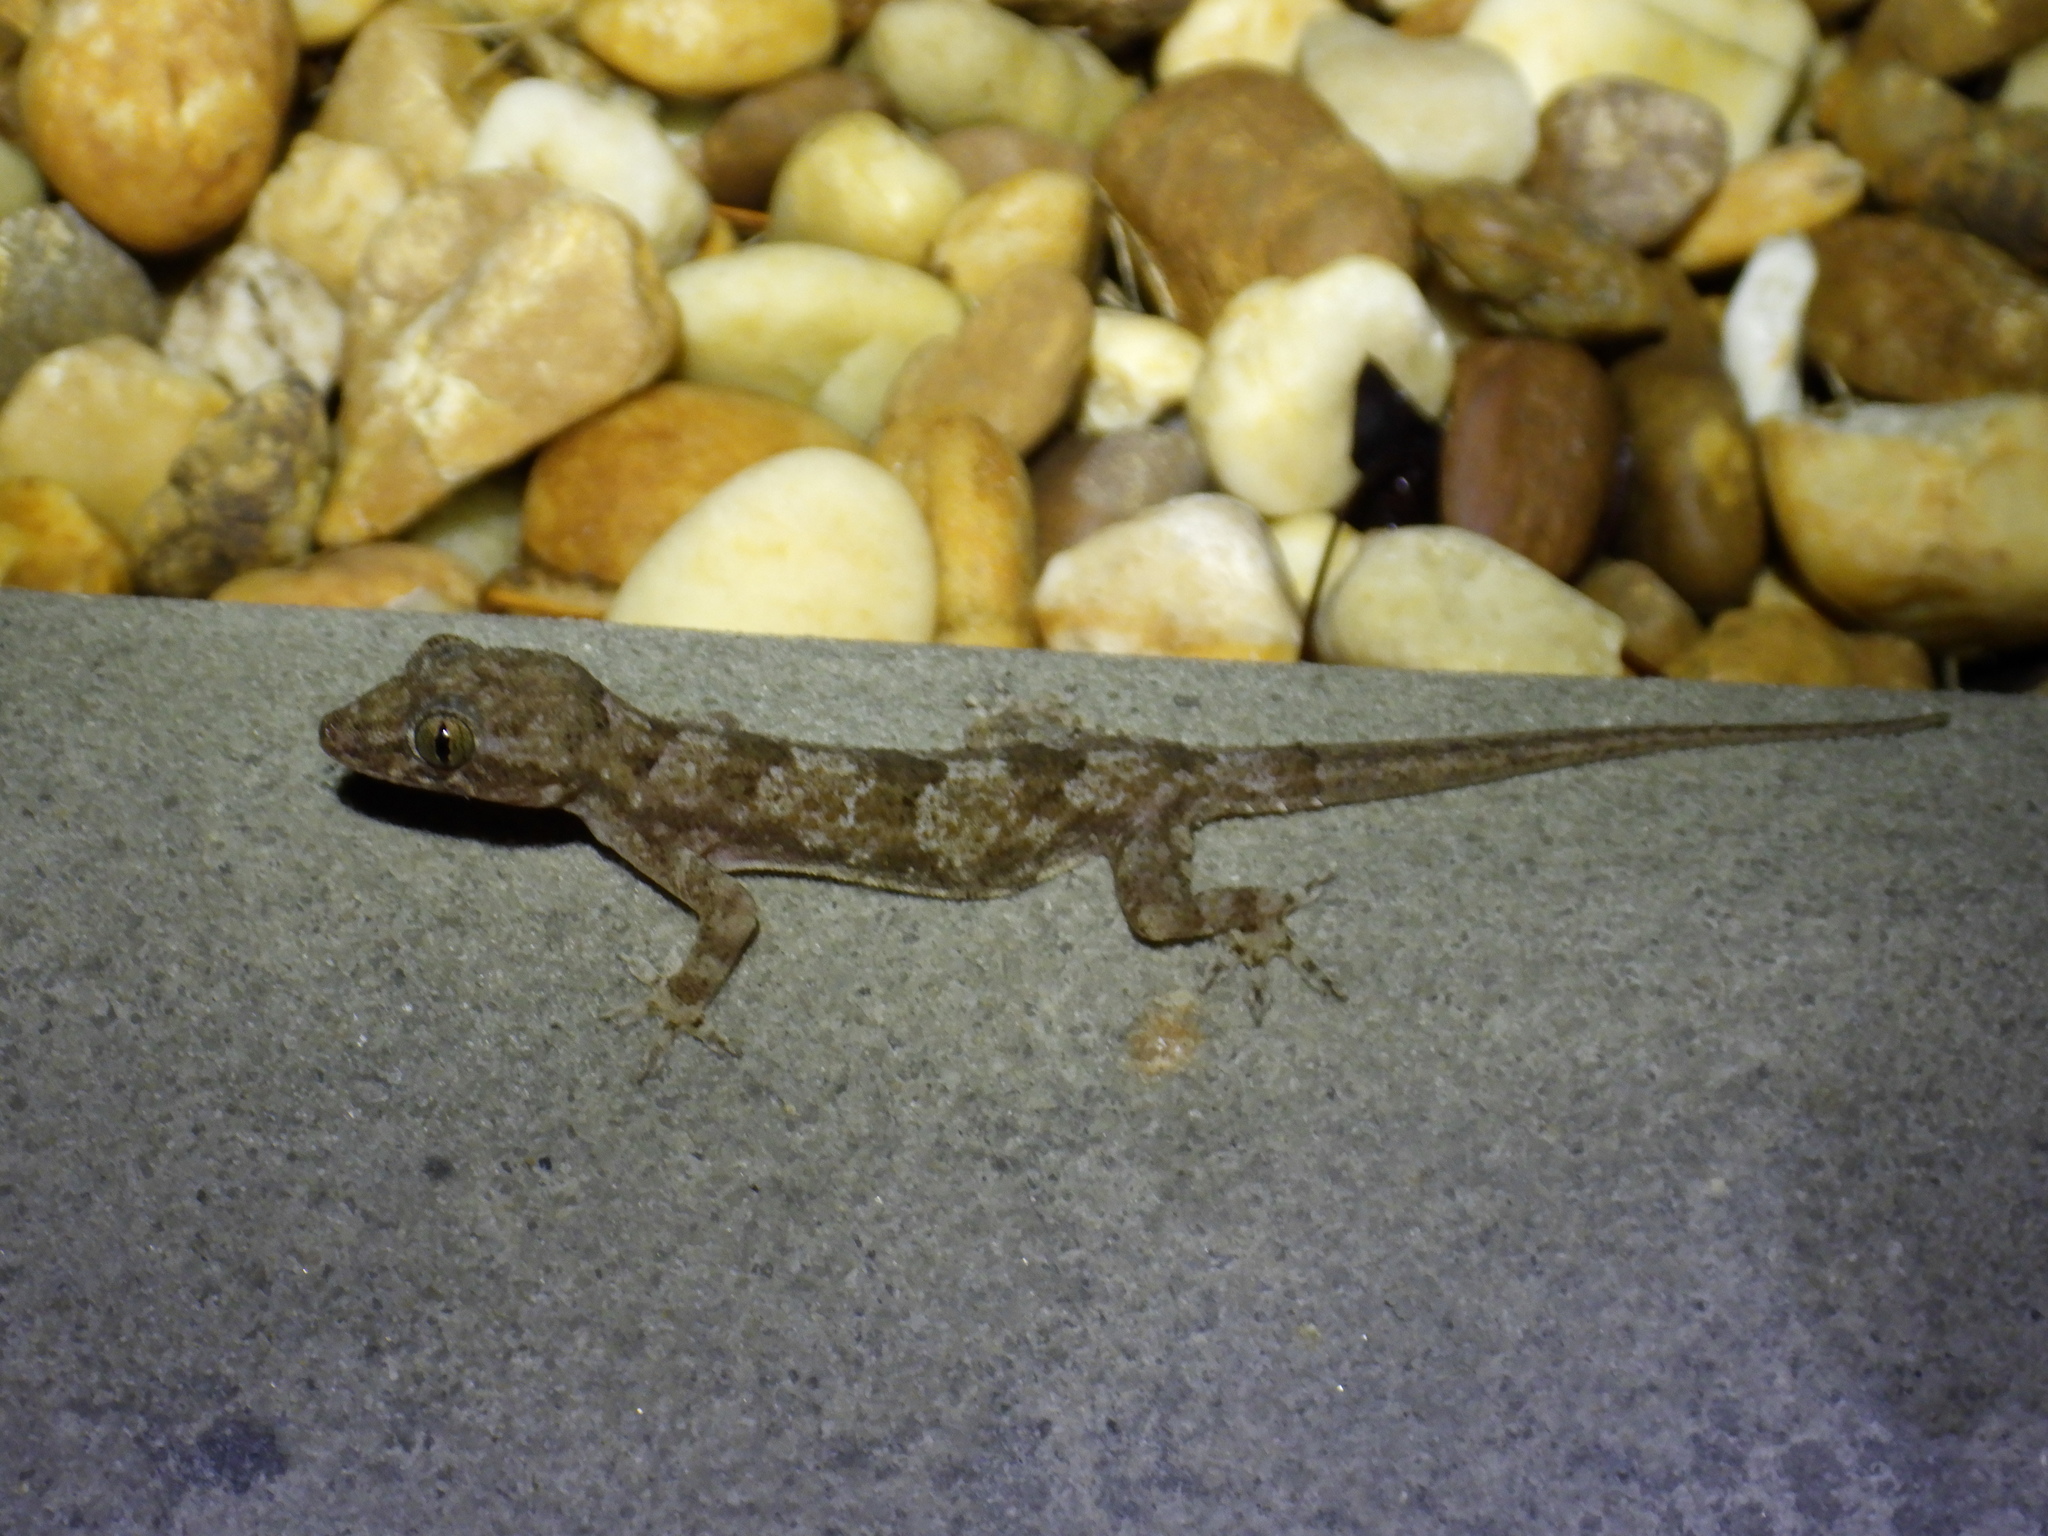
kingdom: Animalia
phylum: Chordata
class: Squamata
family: Gekkonidae
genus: Hemidactylus
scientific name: Hemidactylus mabouia
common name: House gecko
